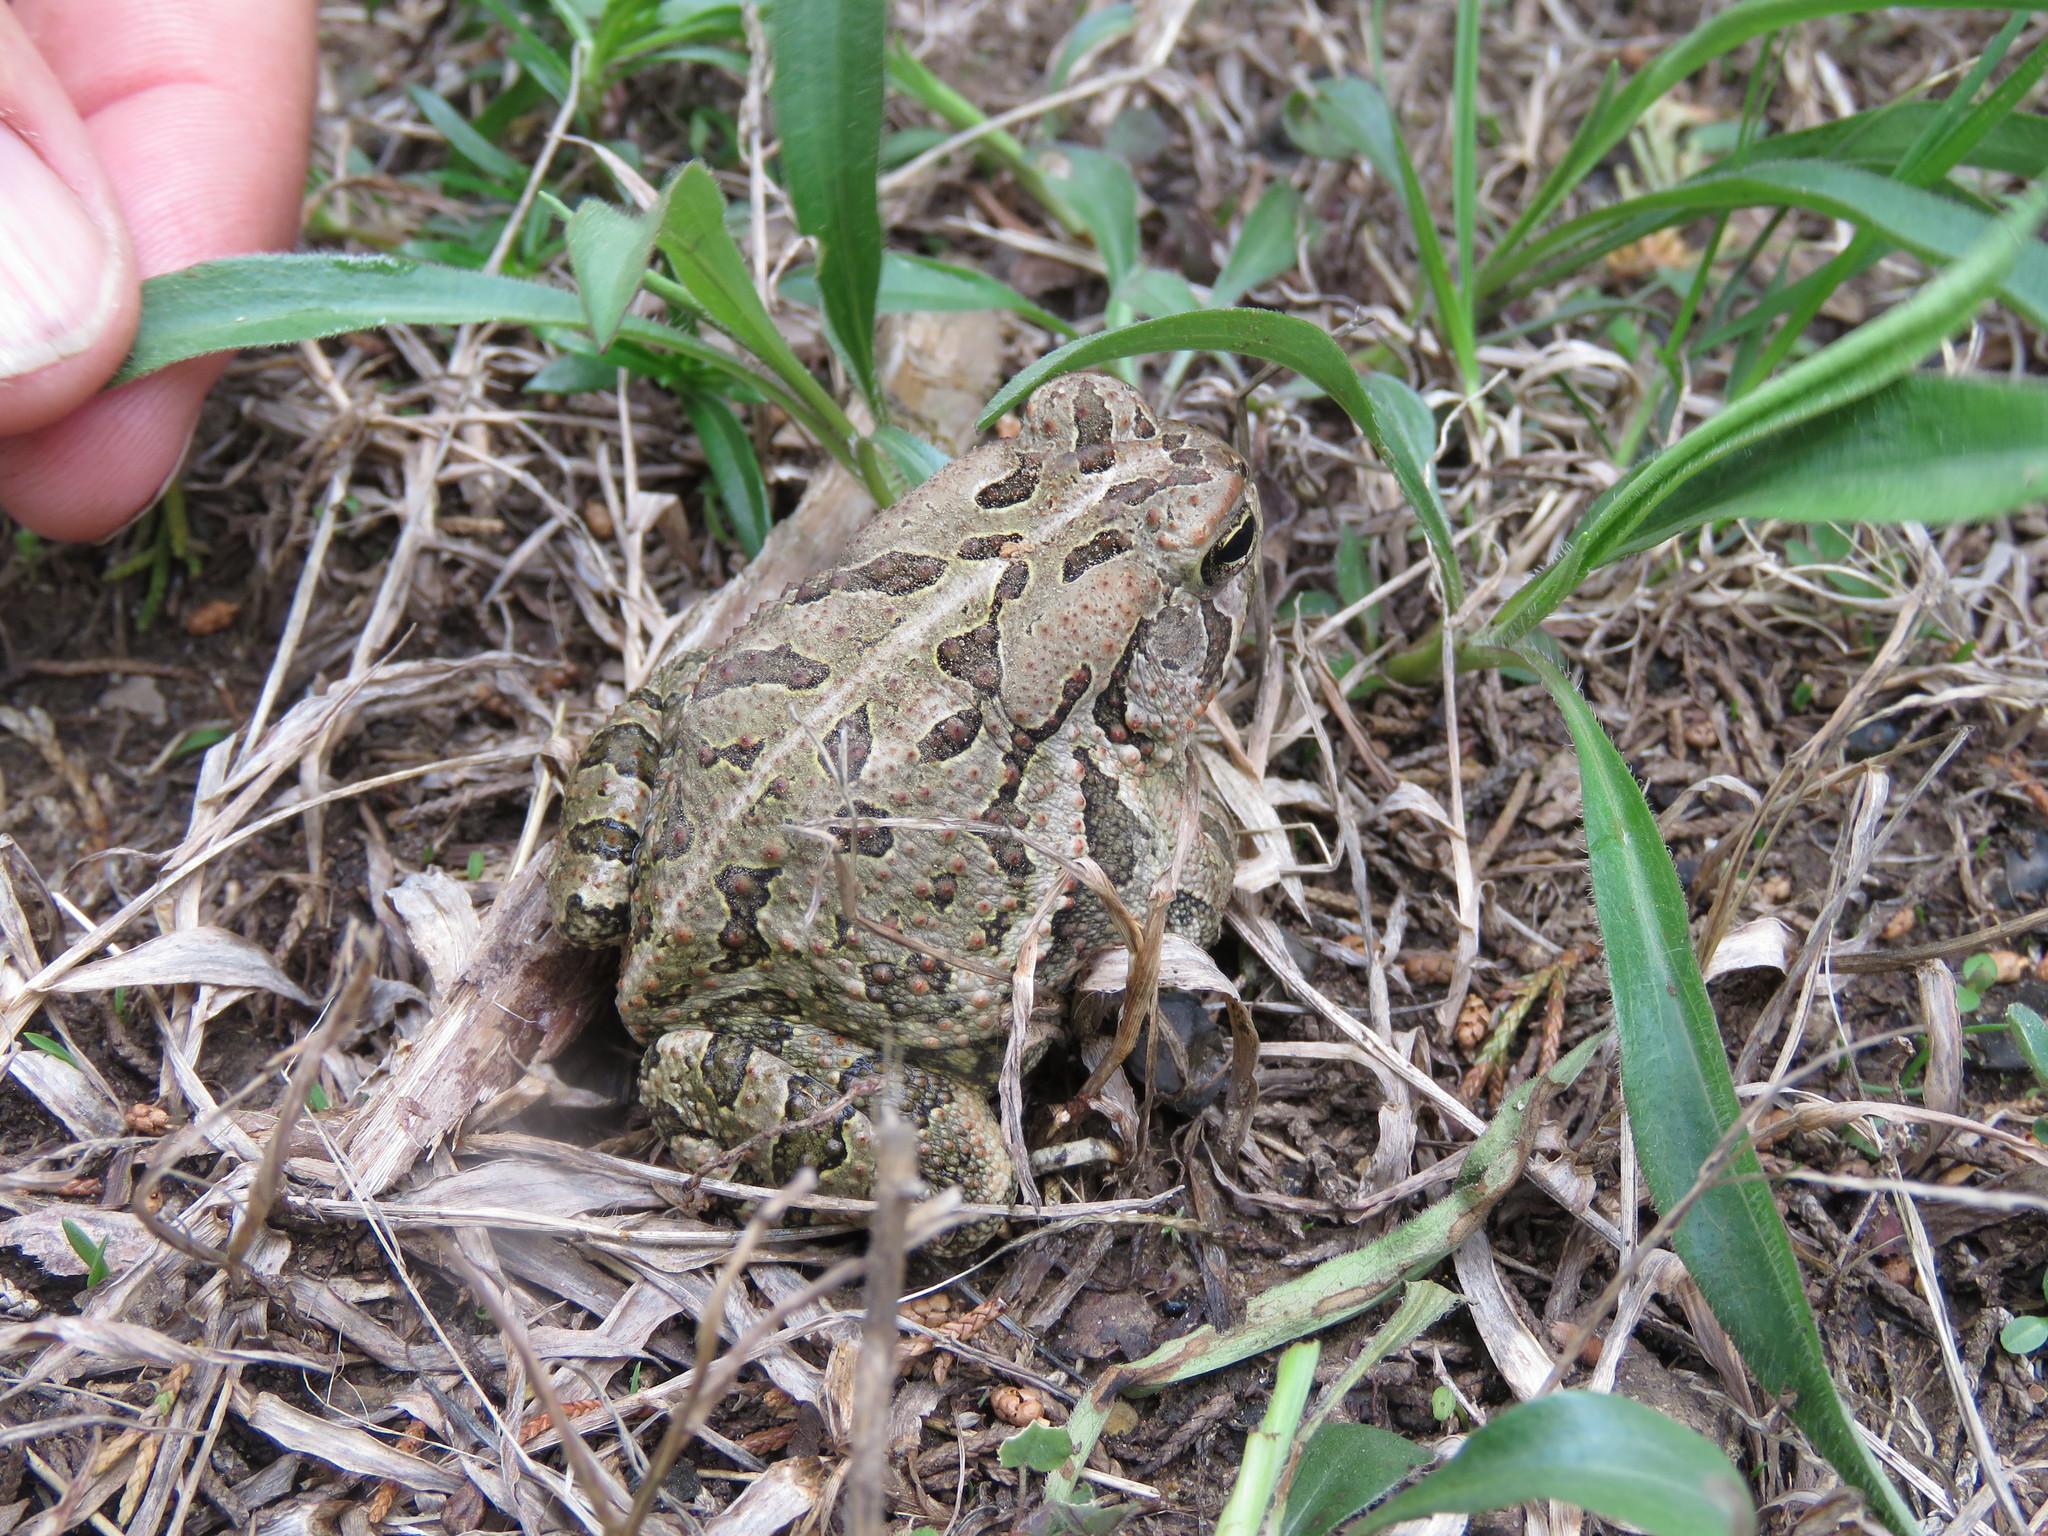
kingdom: Animalia
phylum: Chordata
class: Amphibia
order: Anura
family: Bufonidae
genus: Anaxyrus
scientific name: Anaxyrus fowleri
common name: Fowler's toad
